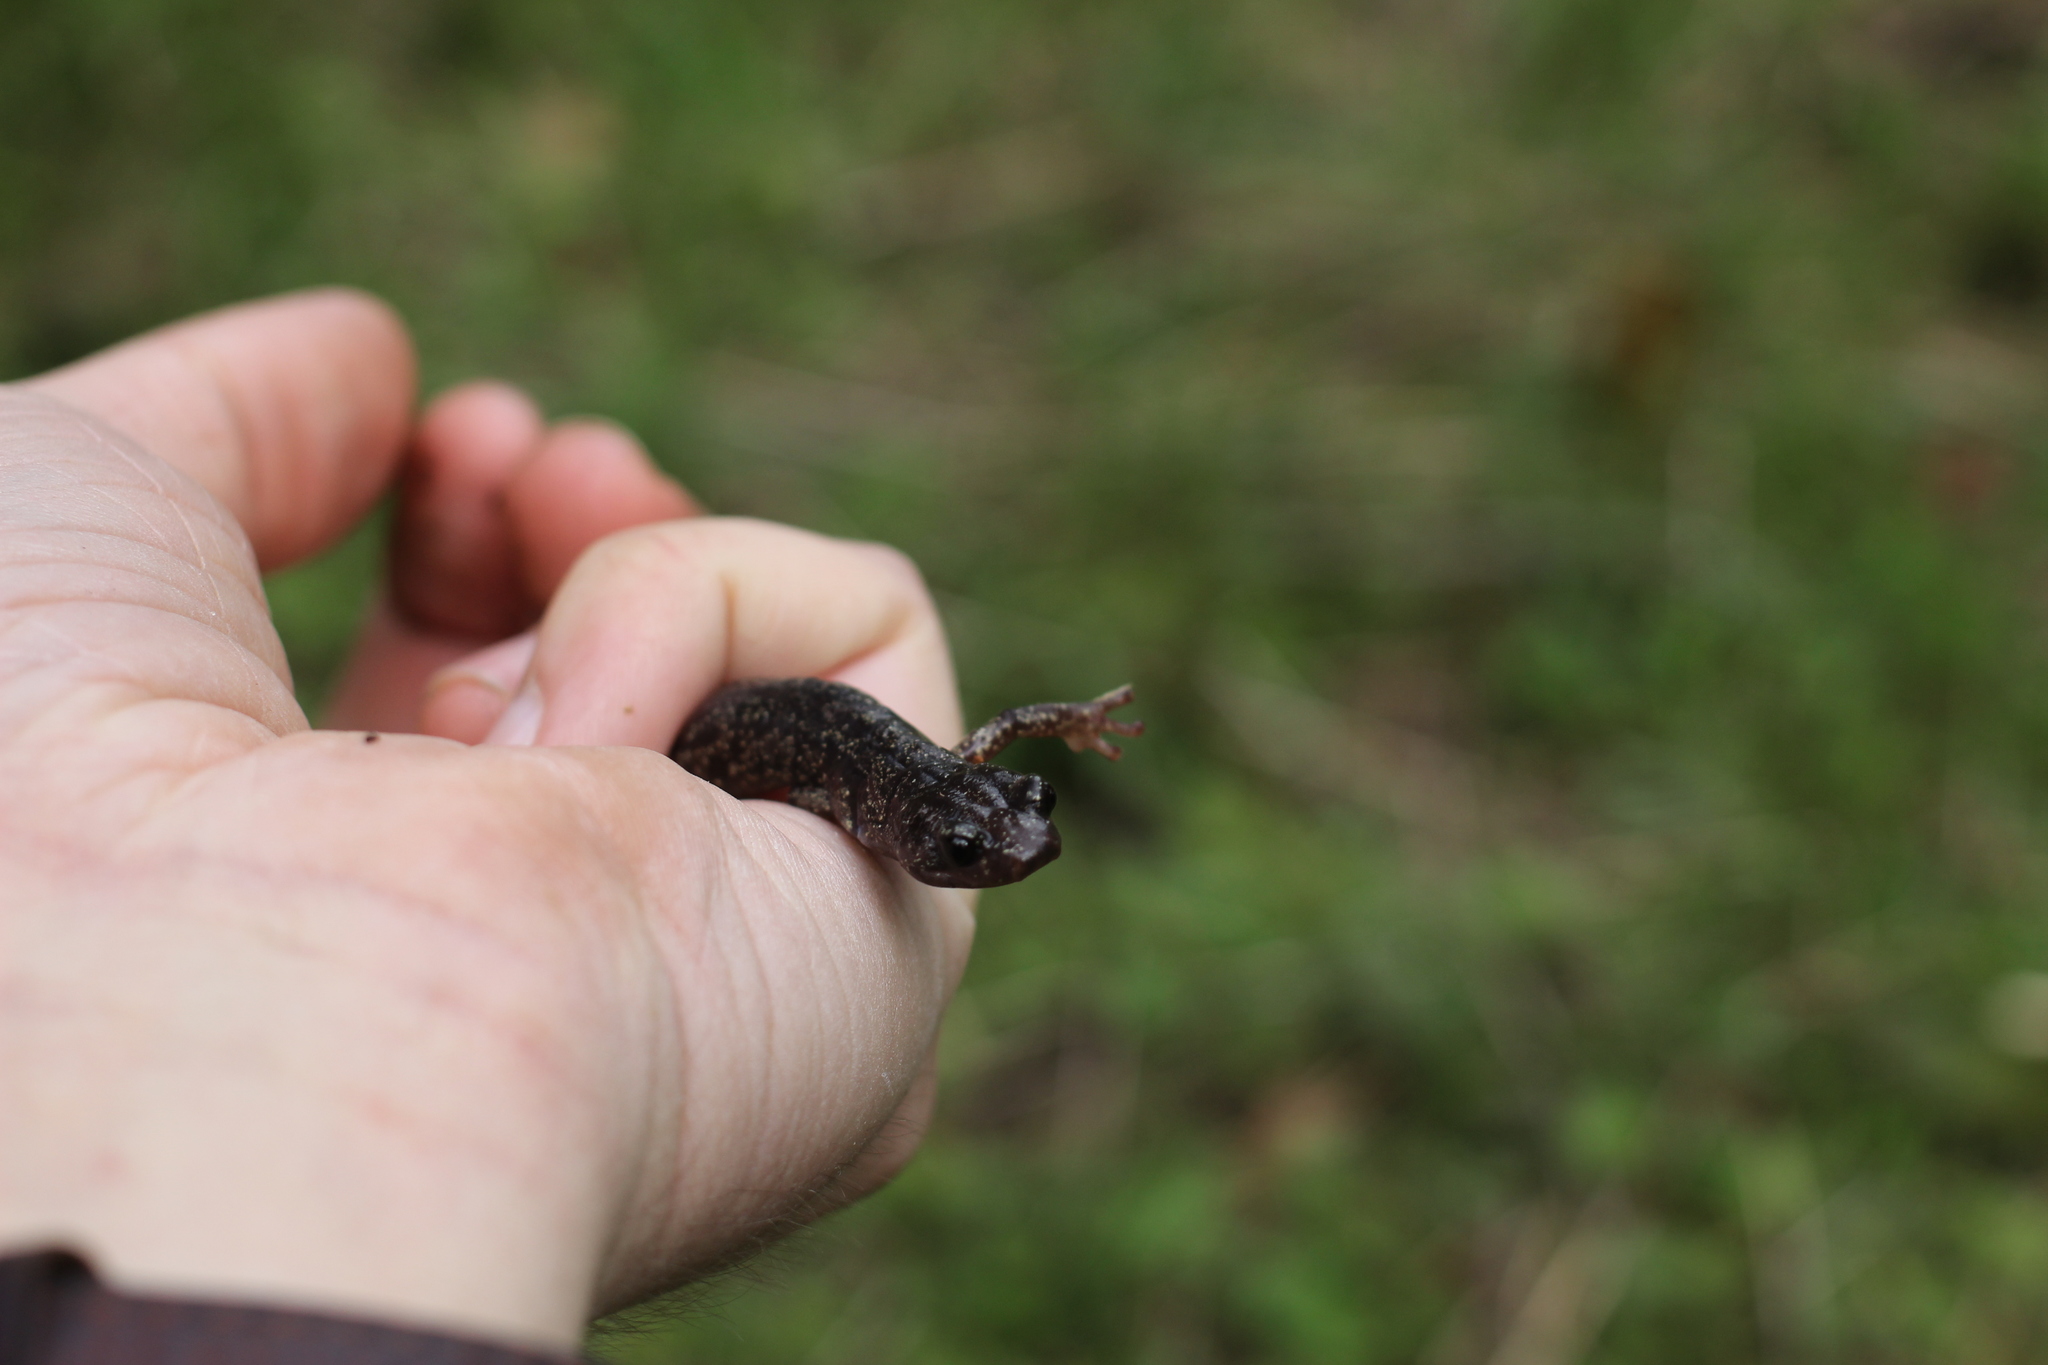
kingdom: Animalia
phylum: Chordata
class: Amphibia
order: Caudata
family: Plethodontidae
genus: Aneides
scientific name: Aneides vagrans
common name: Wandering salamander
